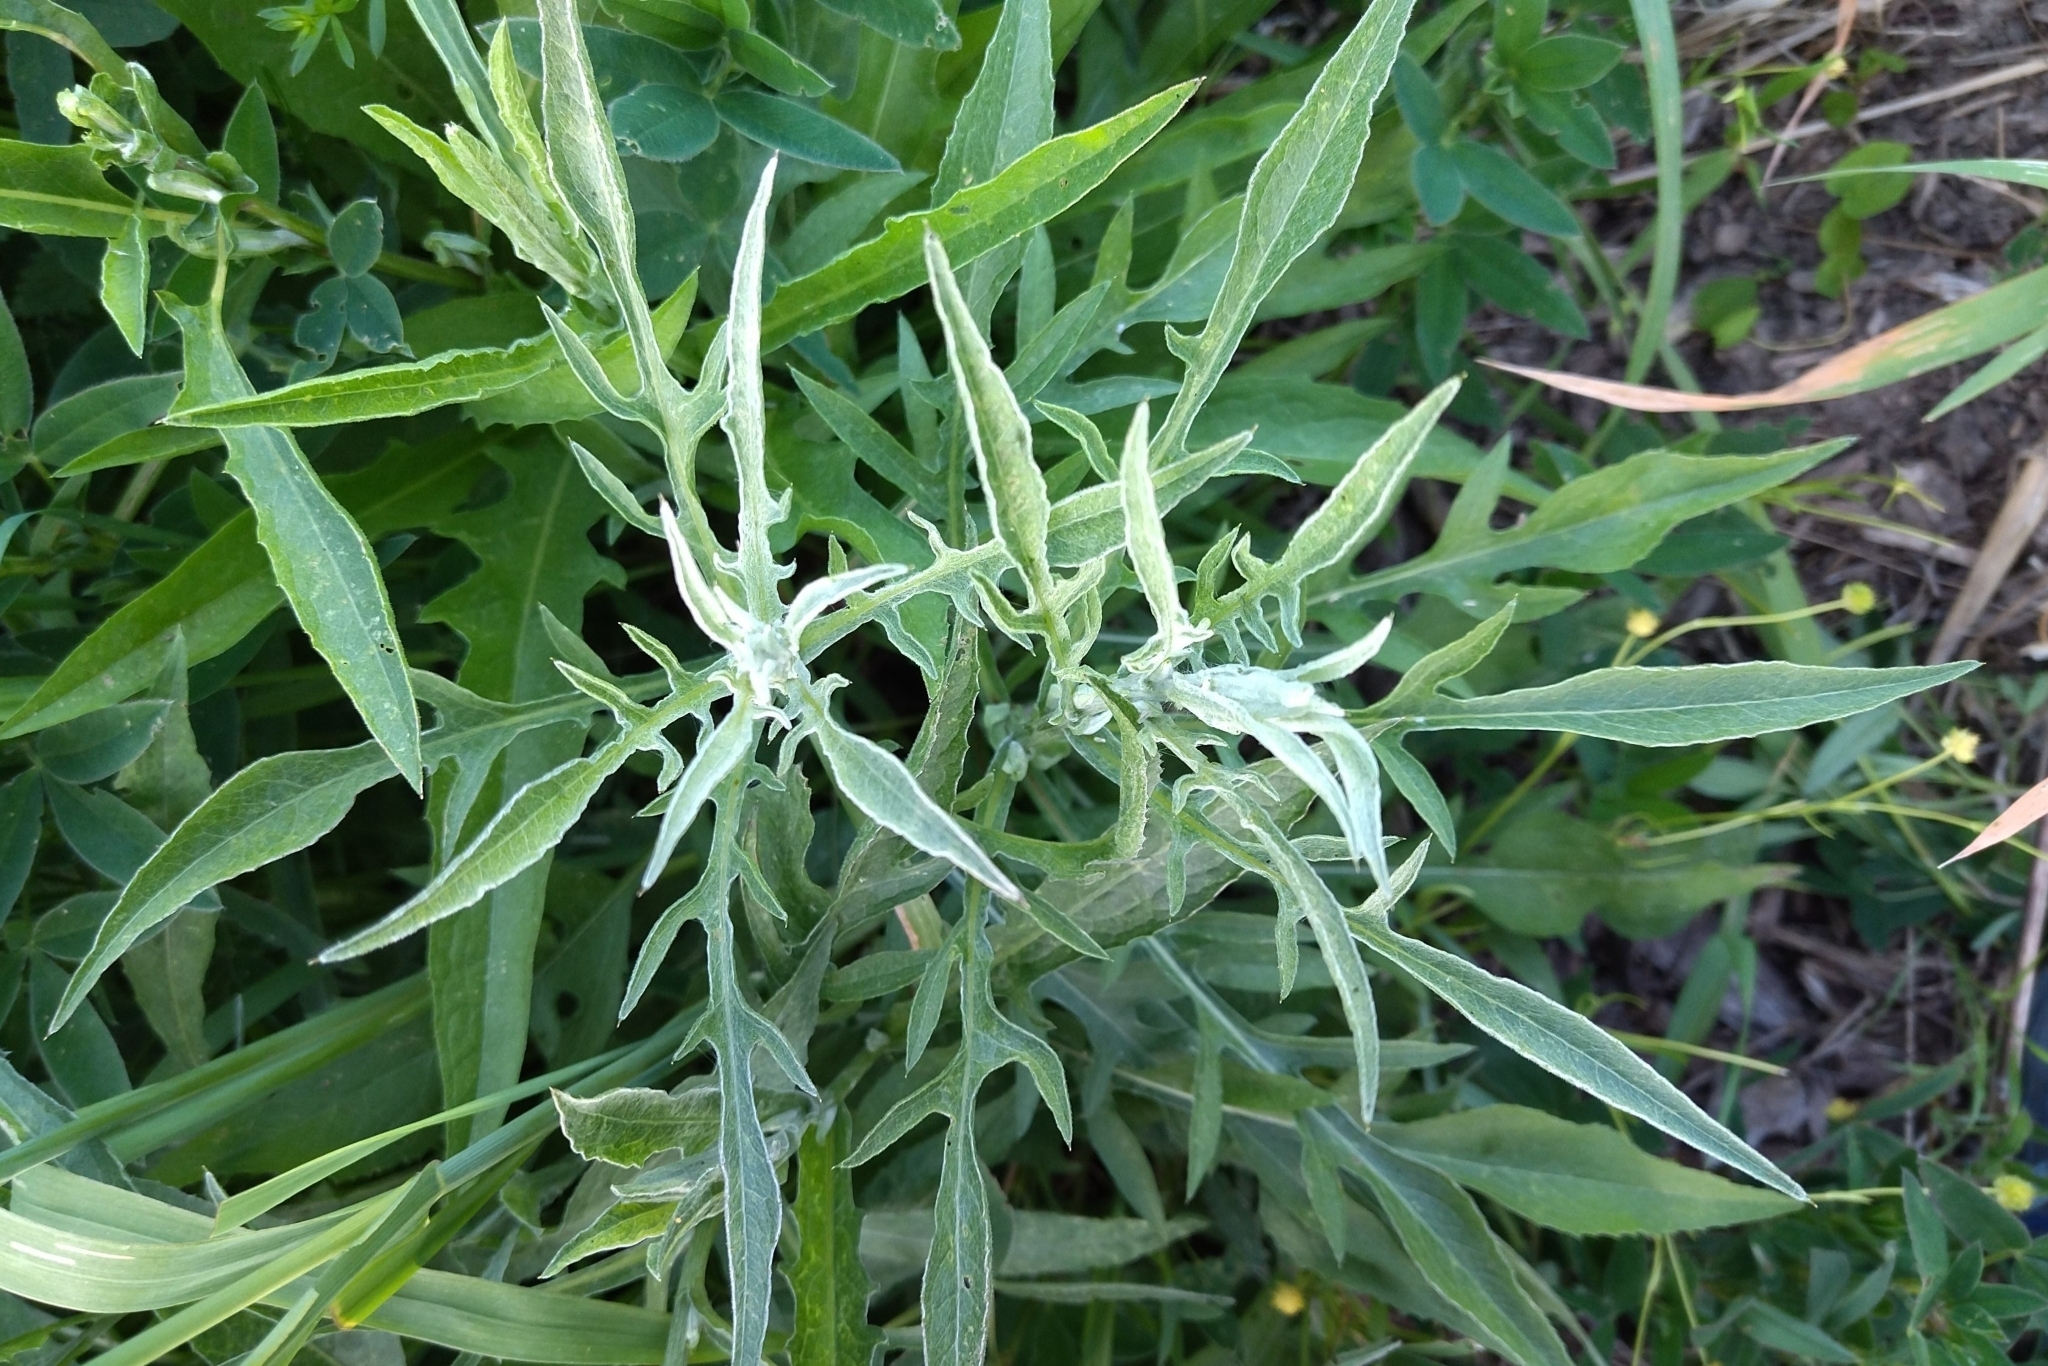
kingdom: Plantae
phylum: Tracheophyta
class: Magnoliopsida
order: Asterales
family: Asteraceae
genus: Centaurea
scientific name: Centaurea jacea
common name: Brown knapweed
